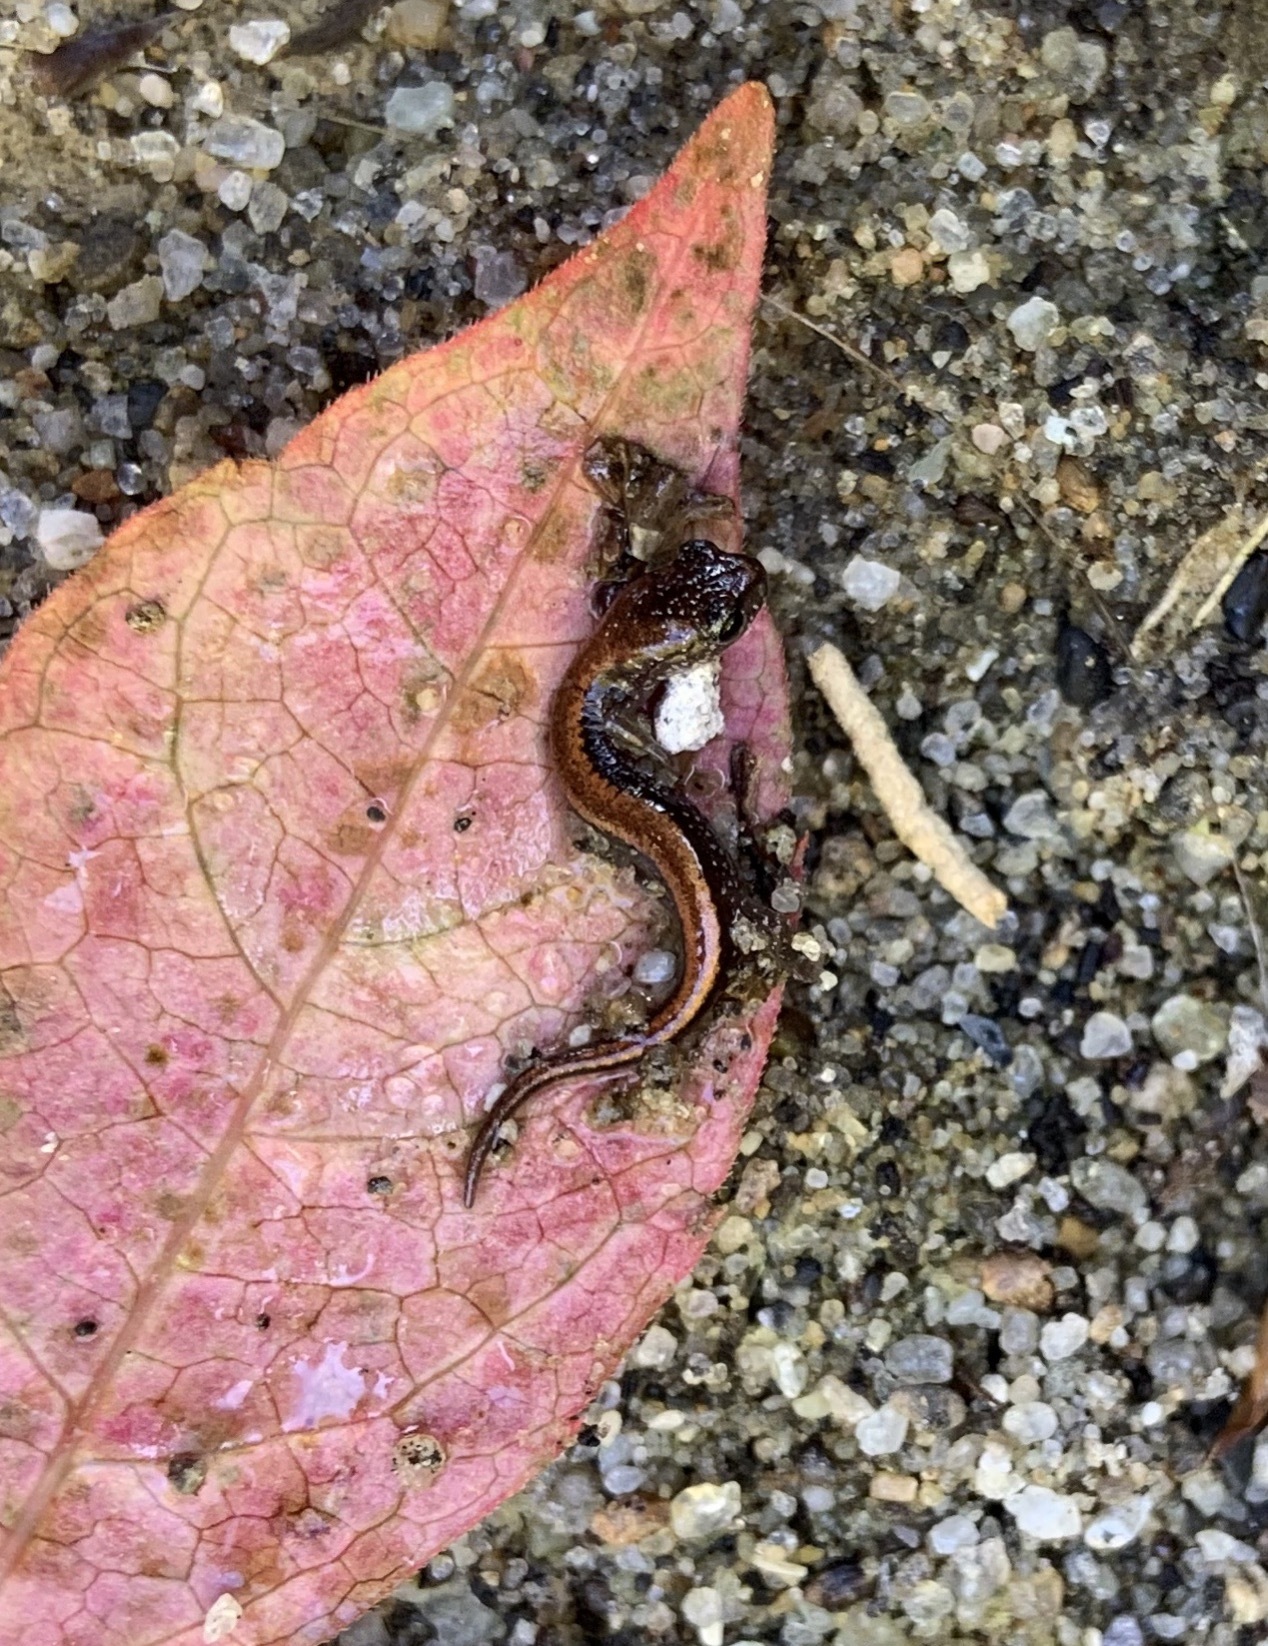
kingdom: Animalia
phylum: Chordata
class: Amphibia
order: Caudata
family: Plethodontidae
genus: Plethodon
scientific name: Plethodon cinereus
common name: Redback salamander
